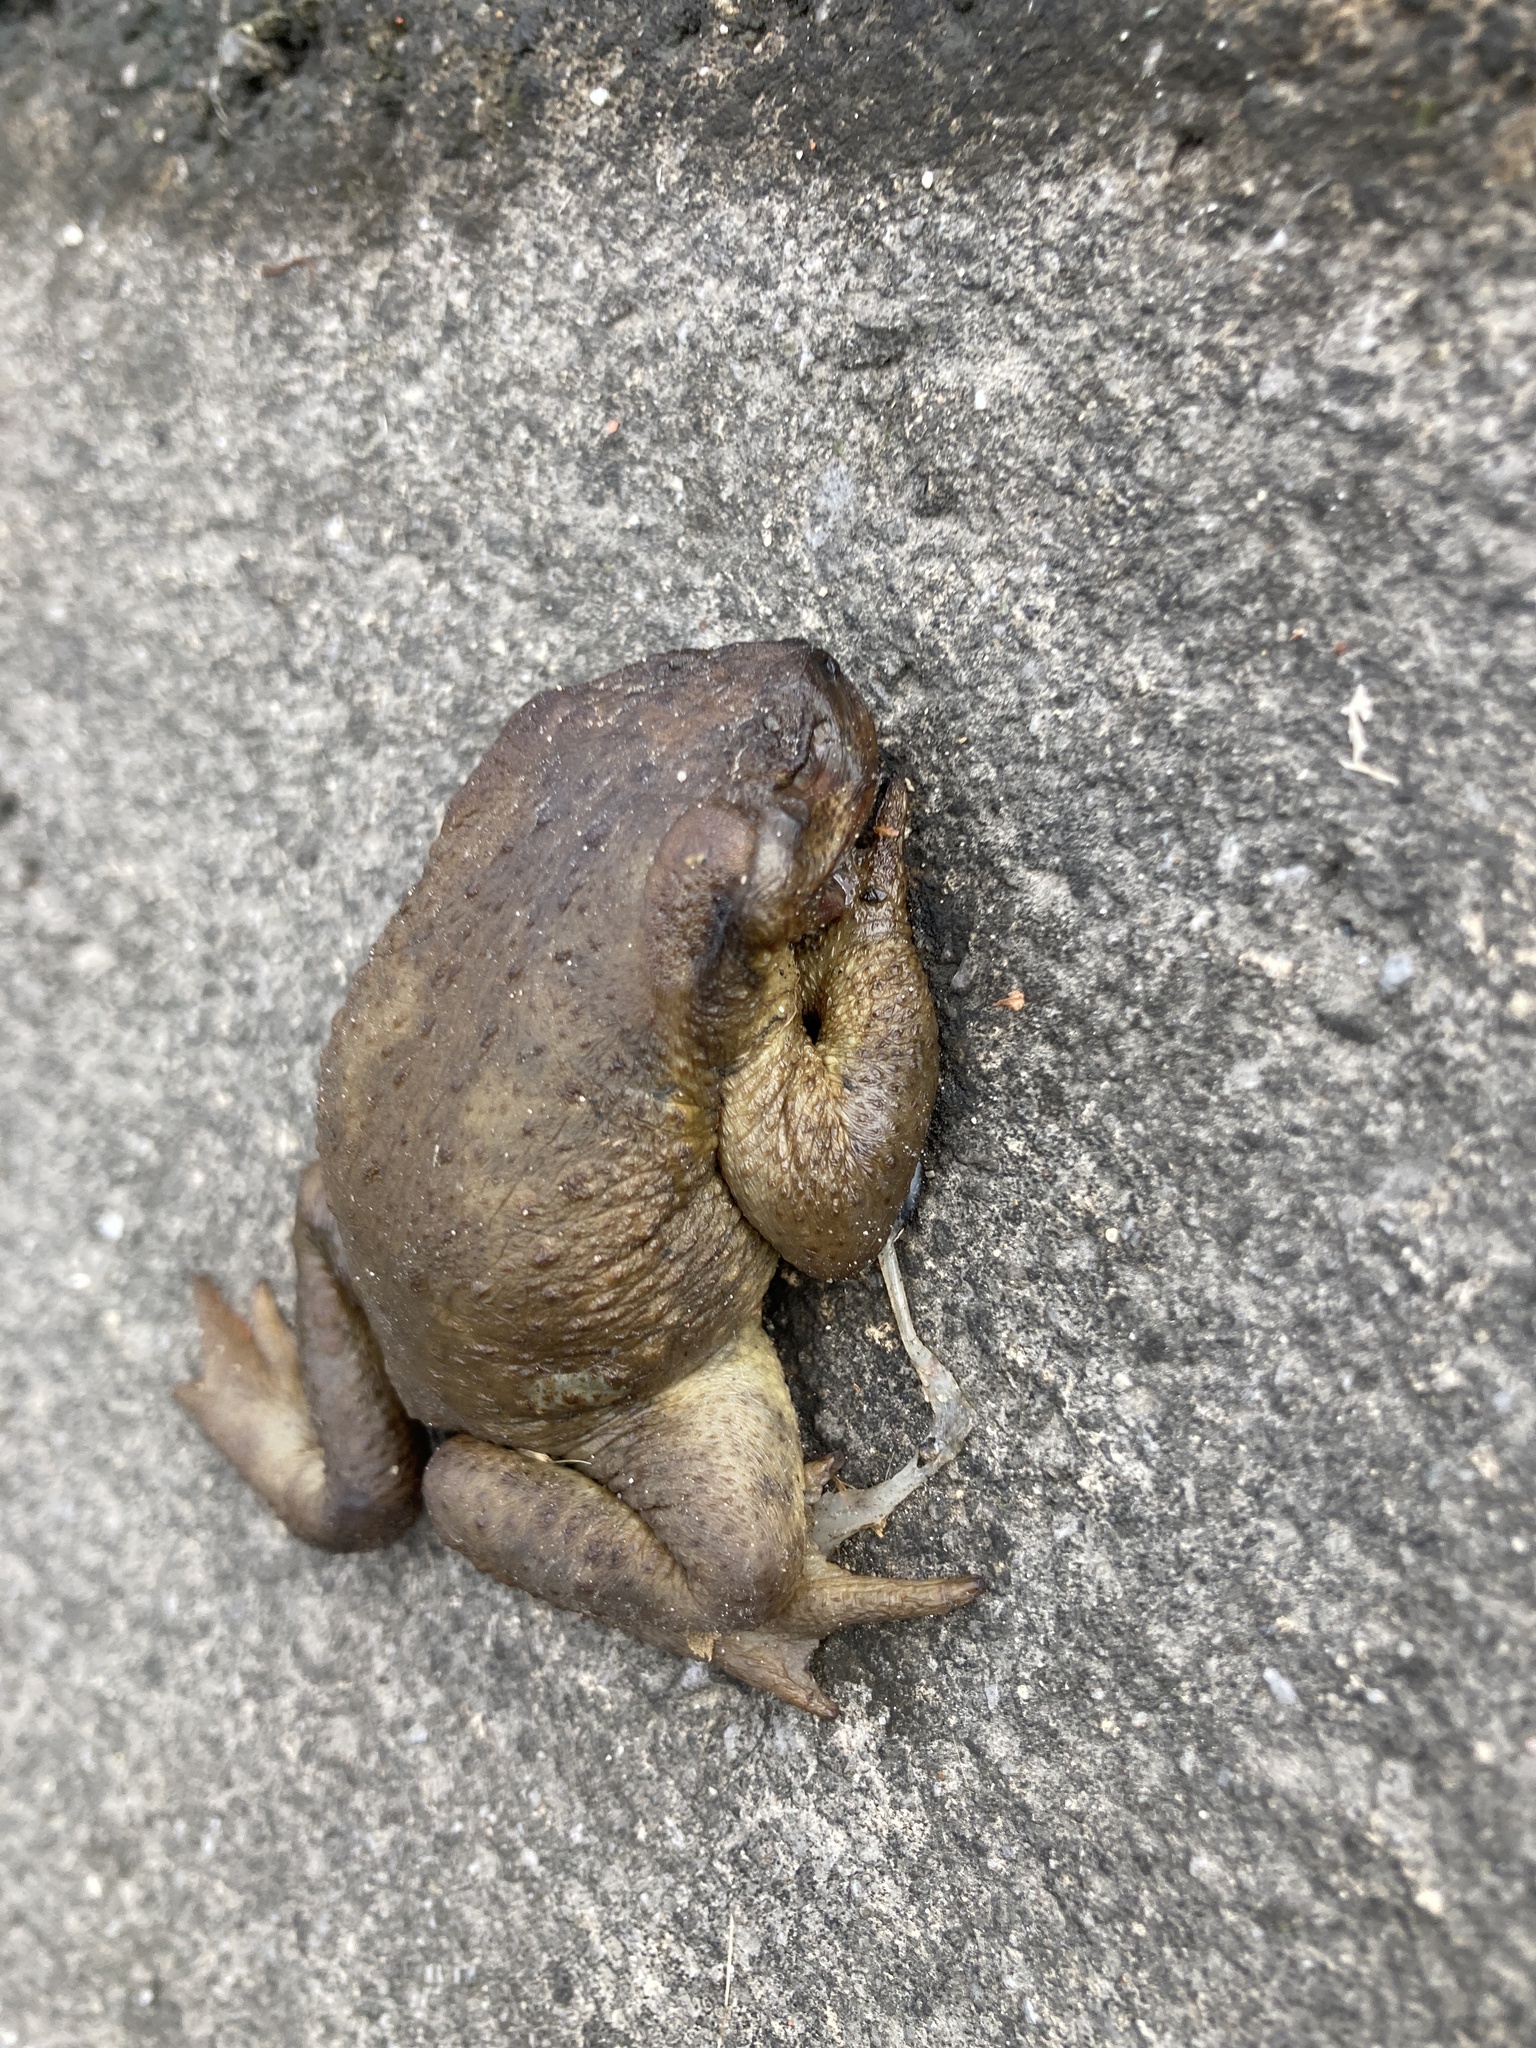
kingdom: Animalia
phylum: Chordata
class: Amphibia
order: Anura
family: Bufonidae
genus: Bufo
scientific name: Bufo spinosus
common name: Western common toad
